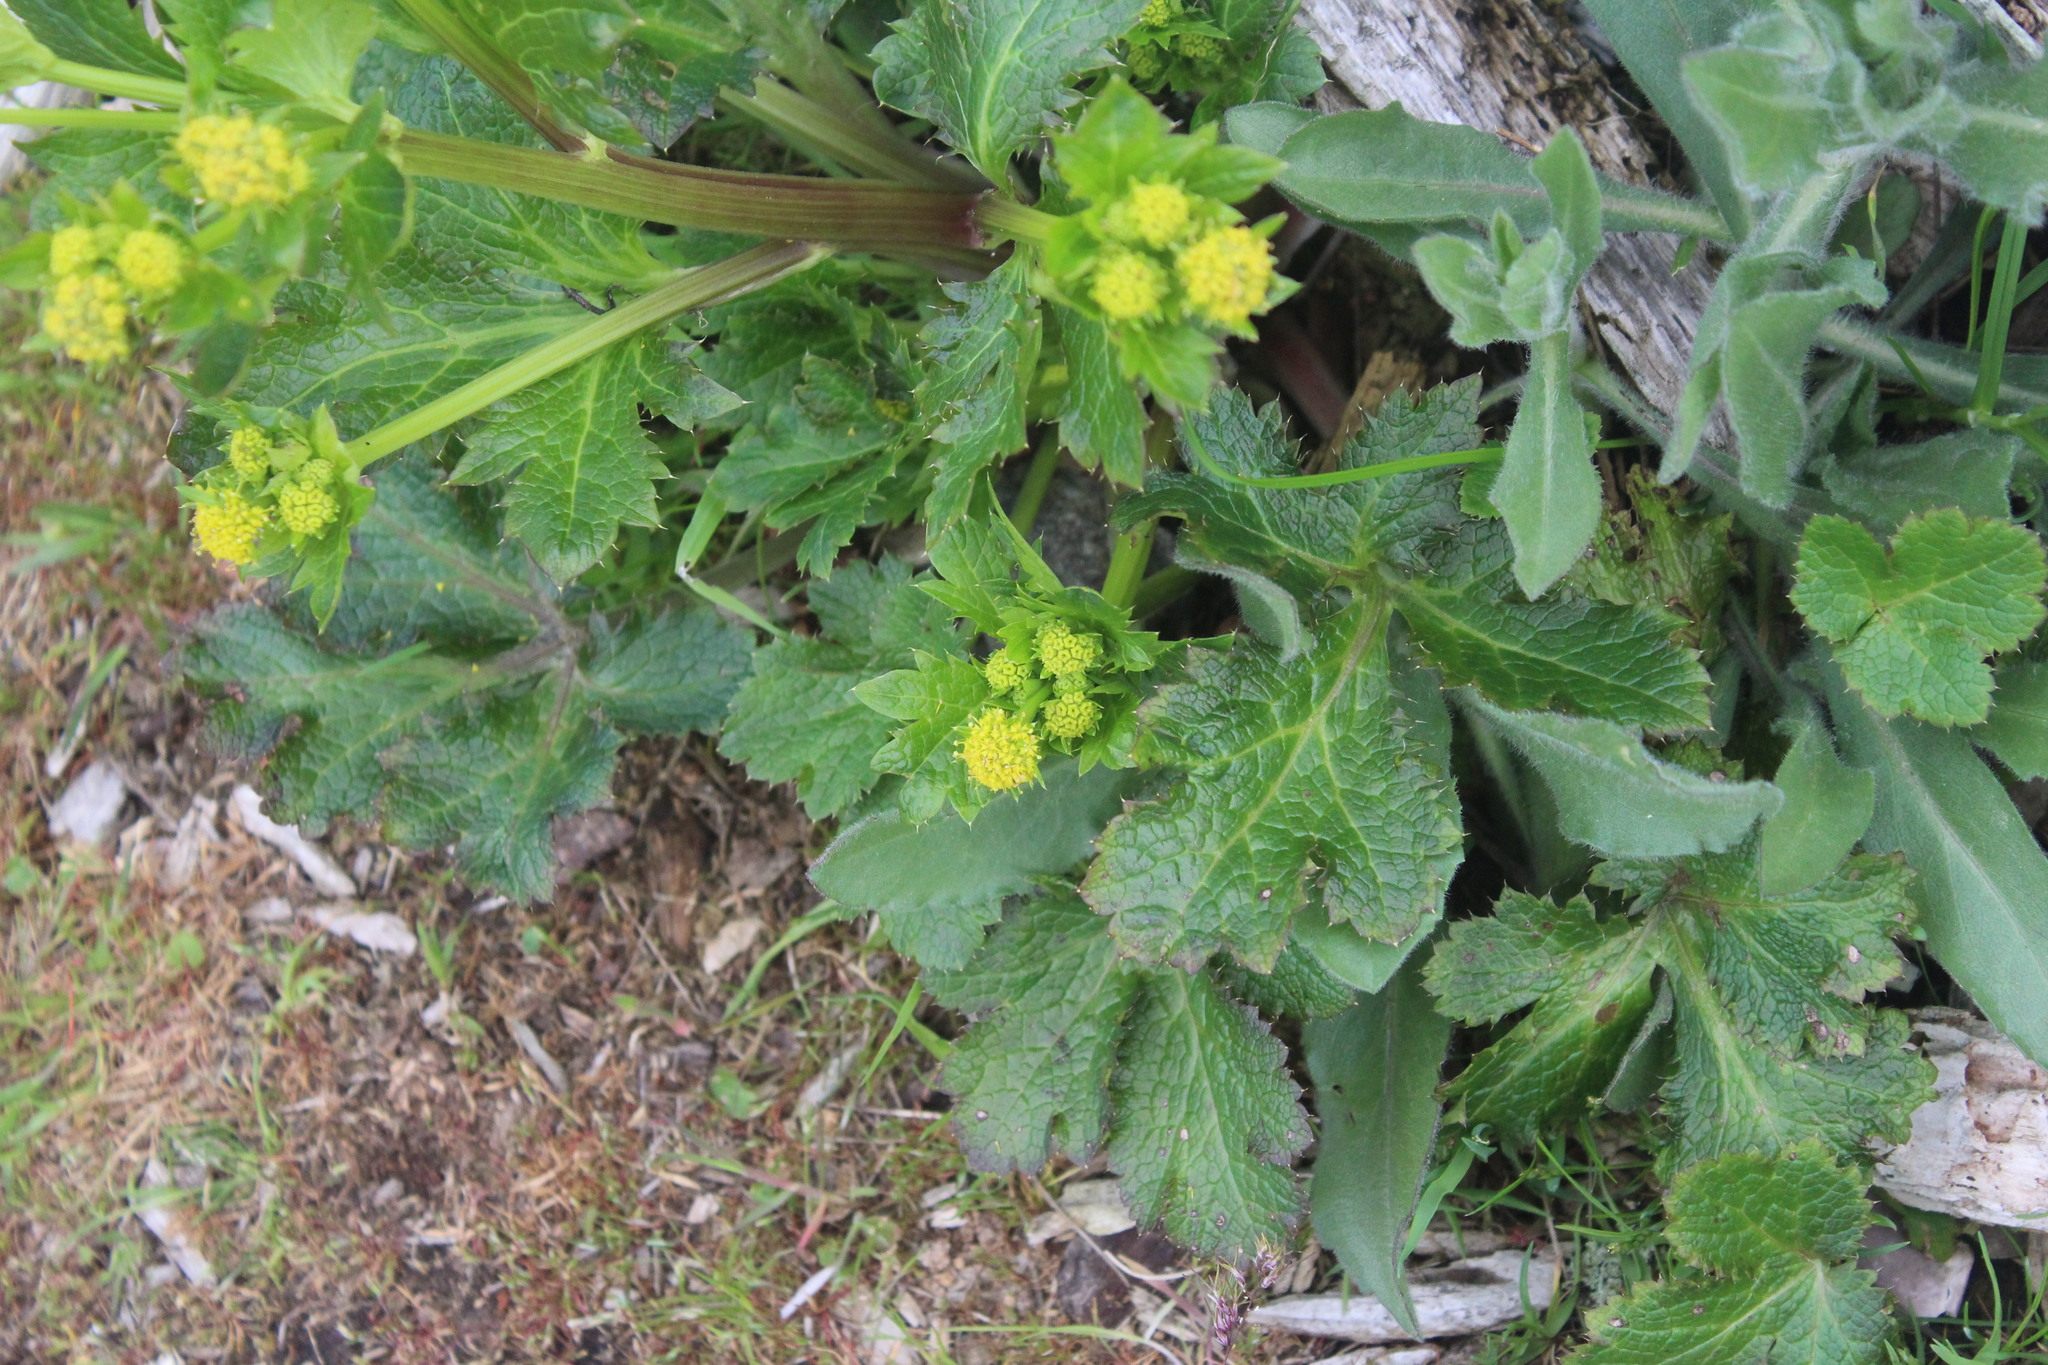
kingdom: Plantae
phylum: Tracheophyta
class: Magnoliopsida
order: Apiales
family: Apiaceae
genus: Sanicula
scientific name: Sanicula crassicaulis
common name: Western snakeroot
